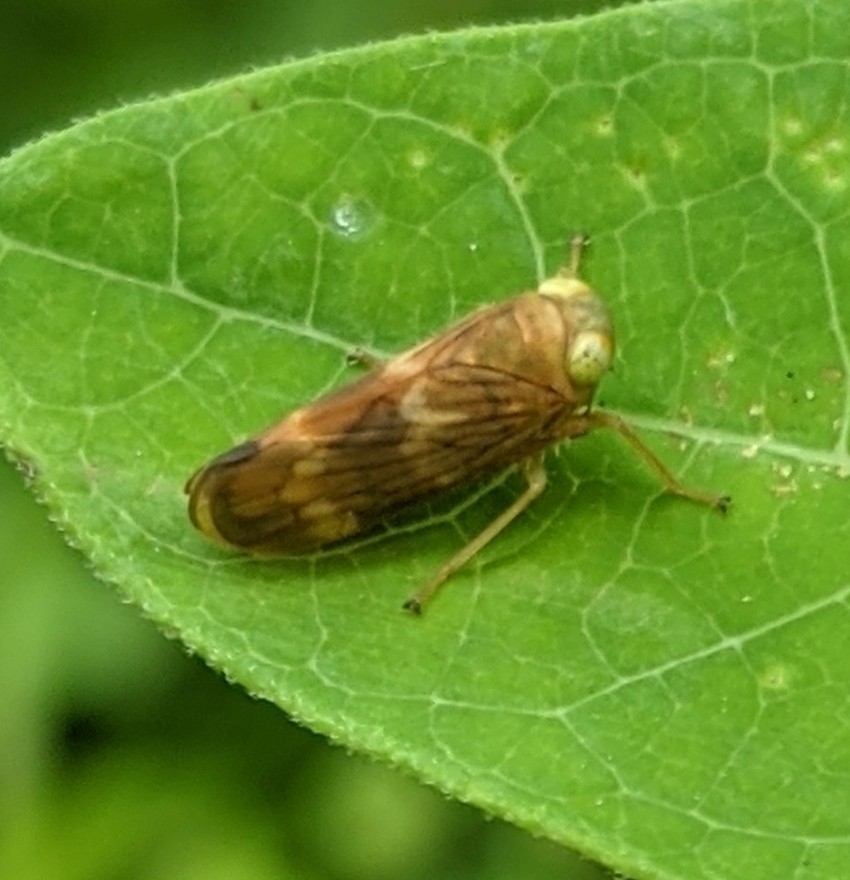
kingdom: Animalia
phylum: Arthropoda
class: Insecta
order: Hemiptera
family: Cicadellidae
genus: Jikradia
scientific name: Jikradia olitoria
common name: Coppery leafhopper
